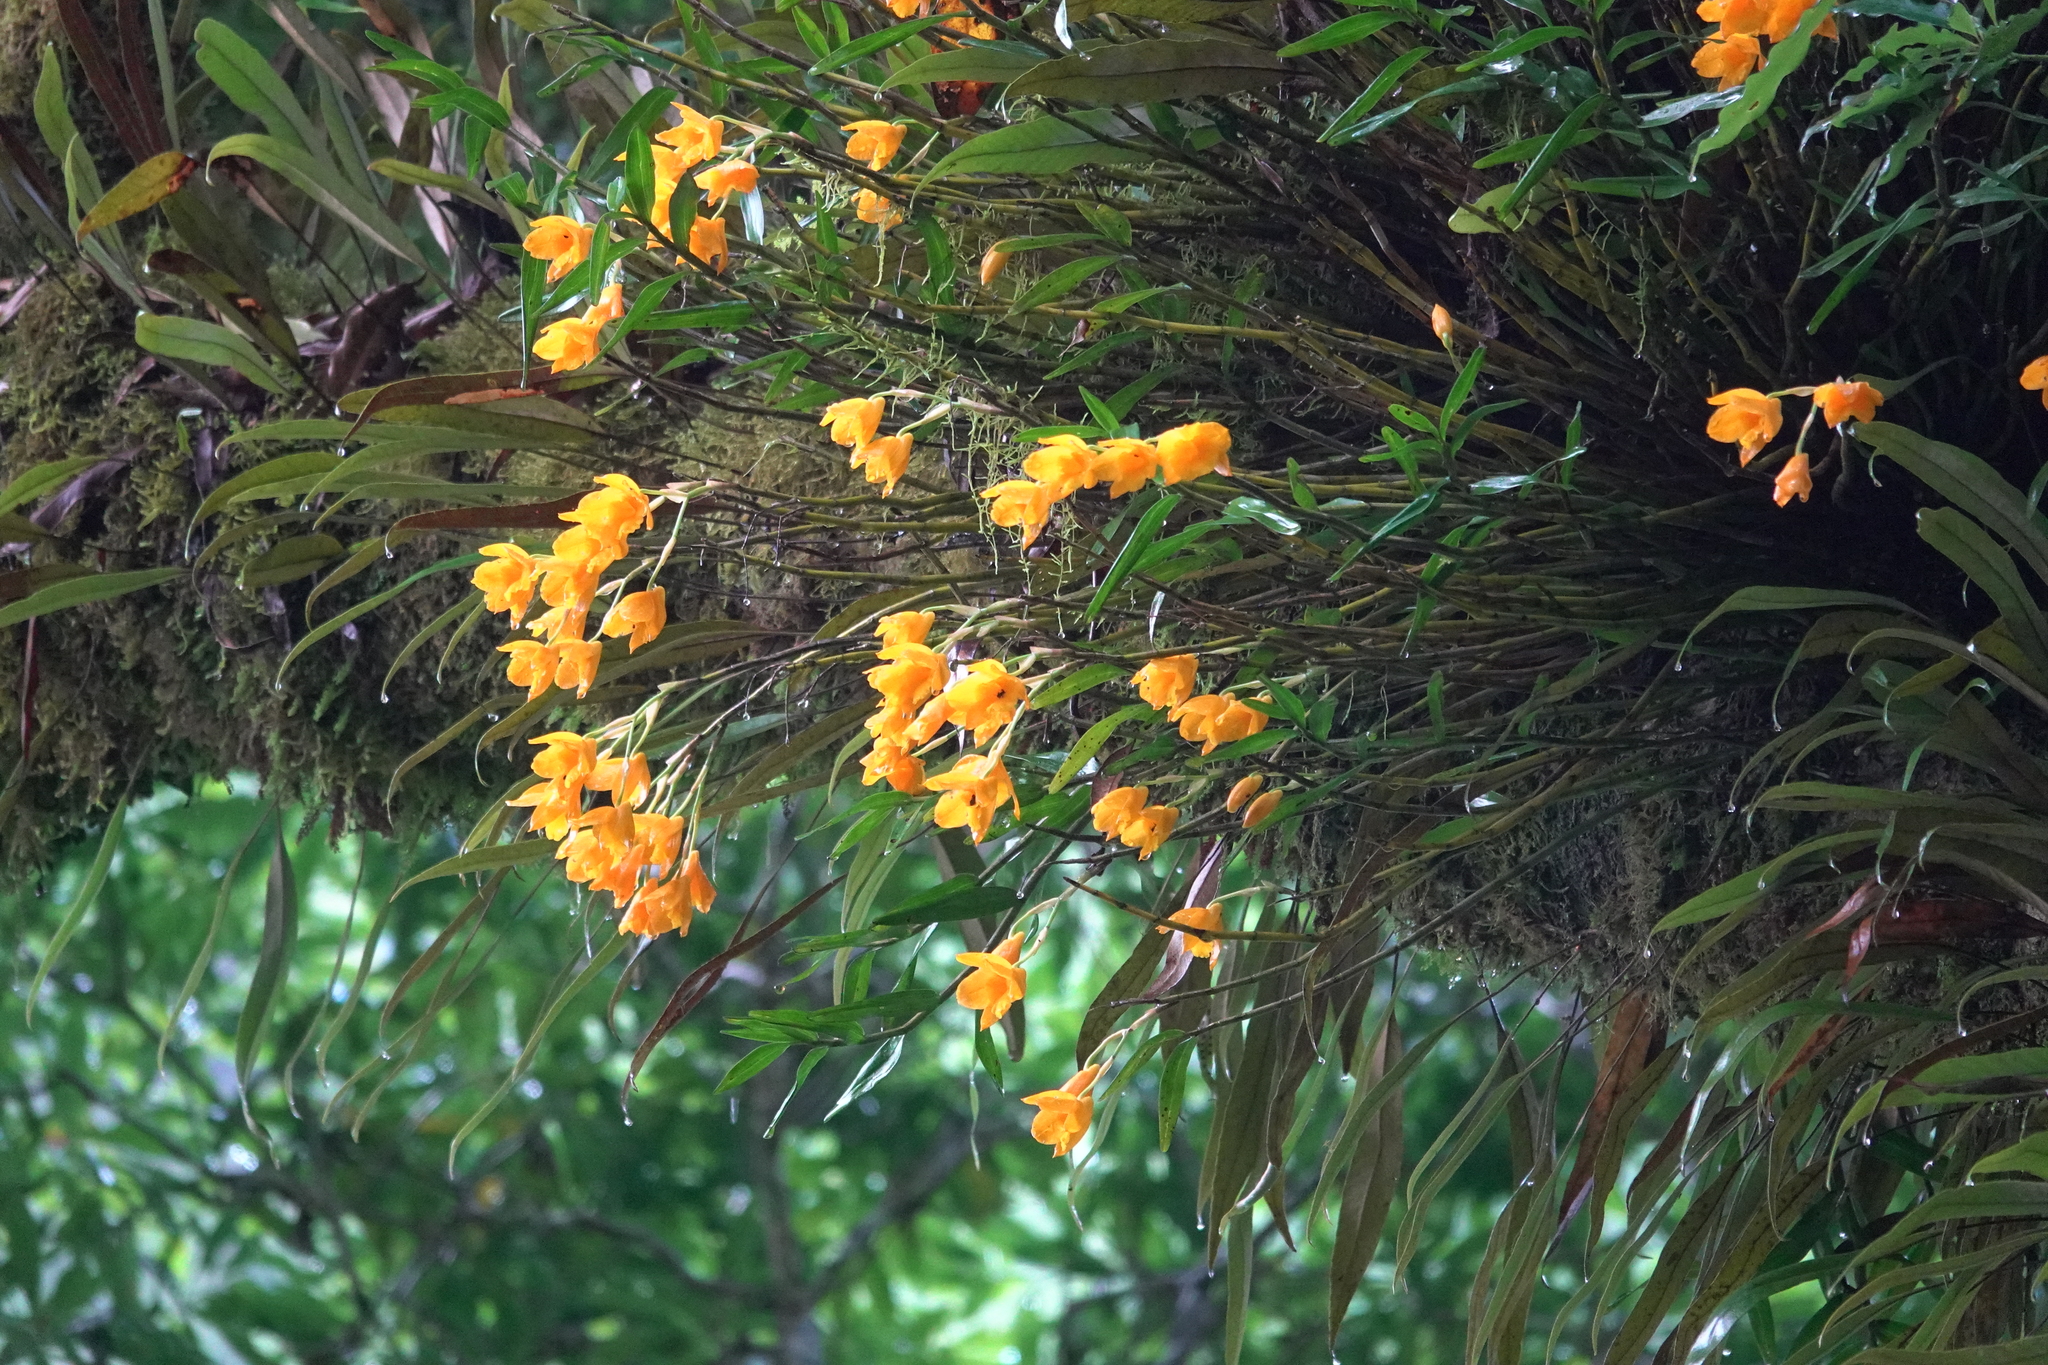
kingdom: Plantae
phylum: Tracheophyta
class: Liliopsida
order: Asparagales
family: Orchidaceae
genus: Dendrobium
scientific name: Dendrobium chryseum
